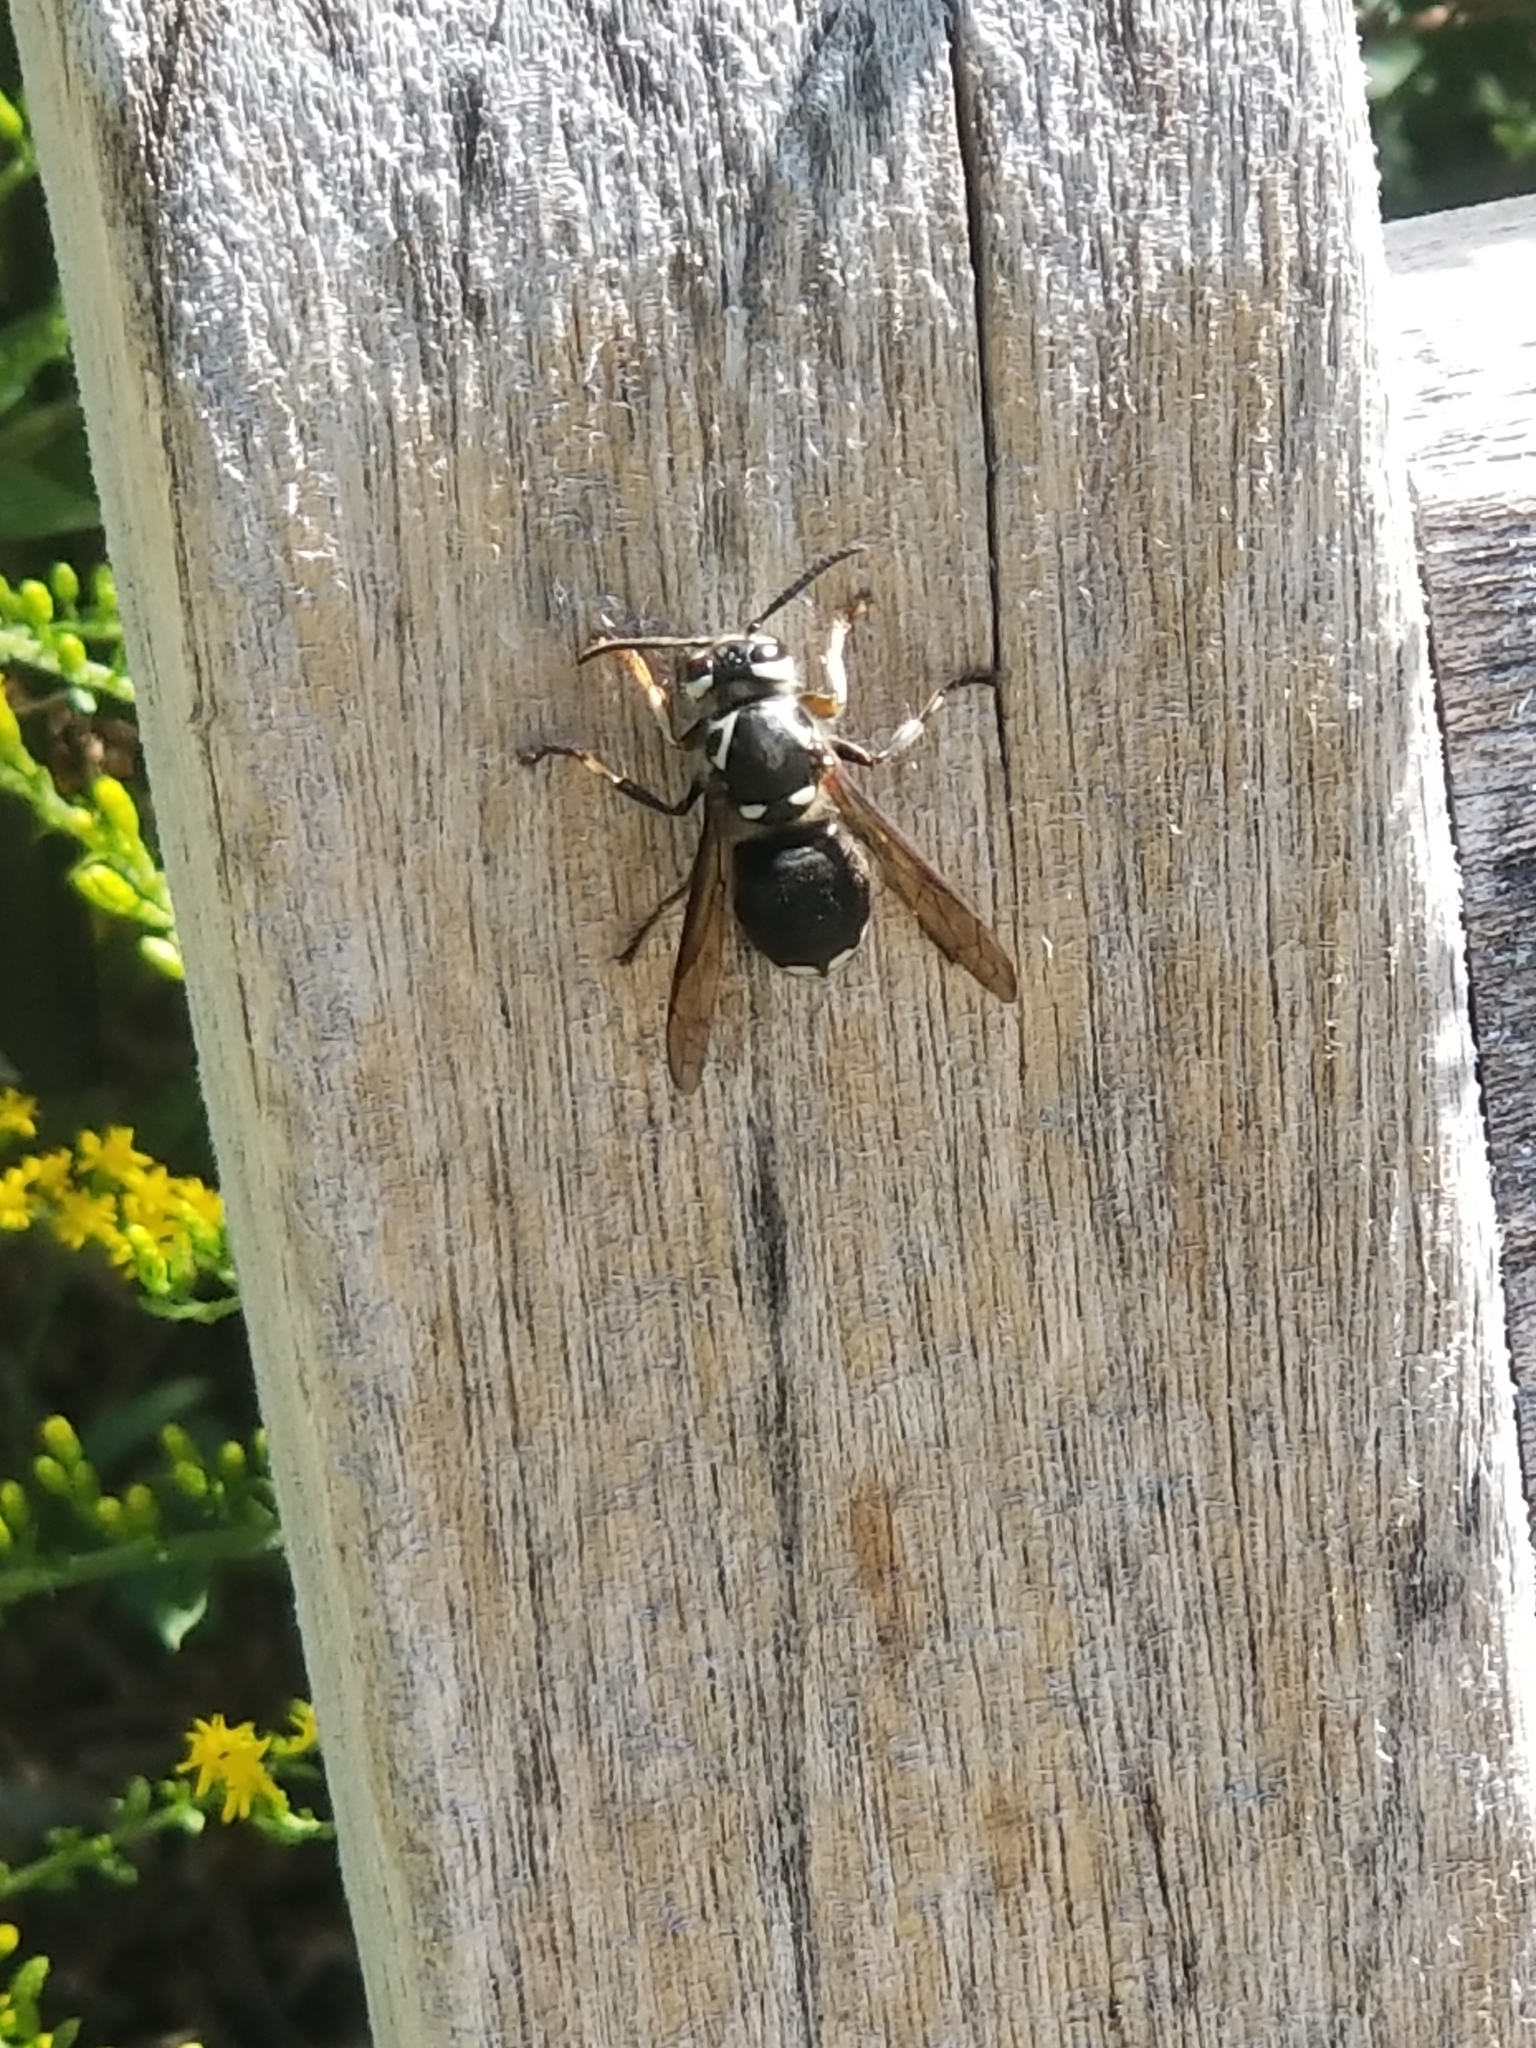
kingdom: Animalia
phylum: Arthropoda
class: Insecta
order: Hymenoptera
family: Vespidae
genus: Dolichovespula
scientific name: Dolichovespula maculata
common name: Bald-faced hornet
